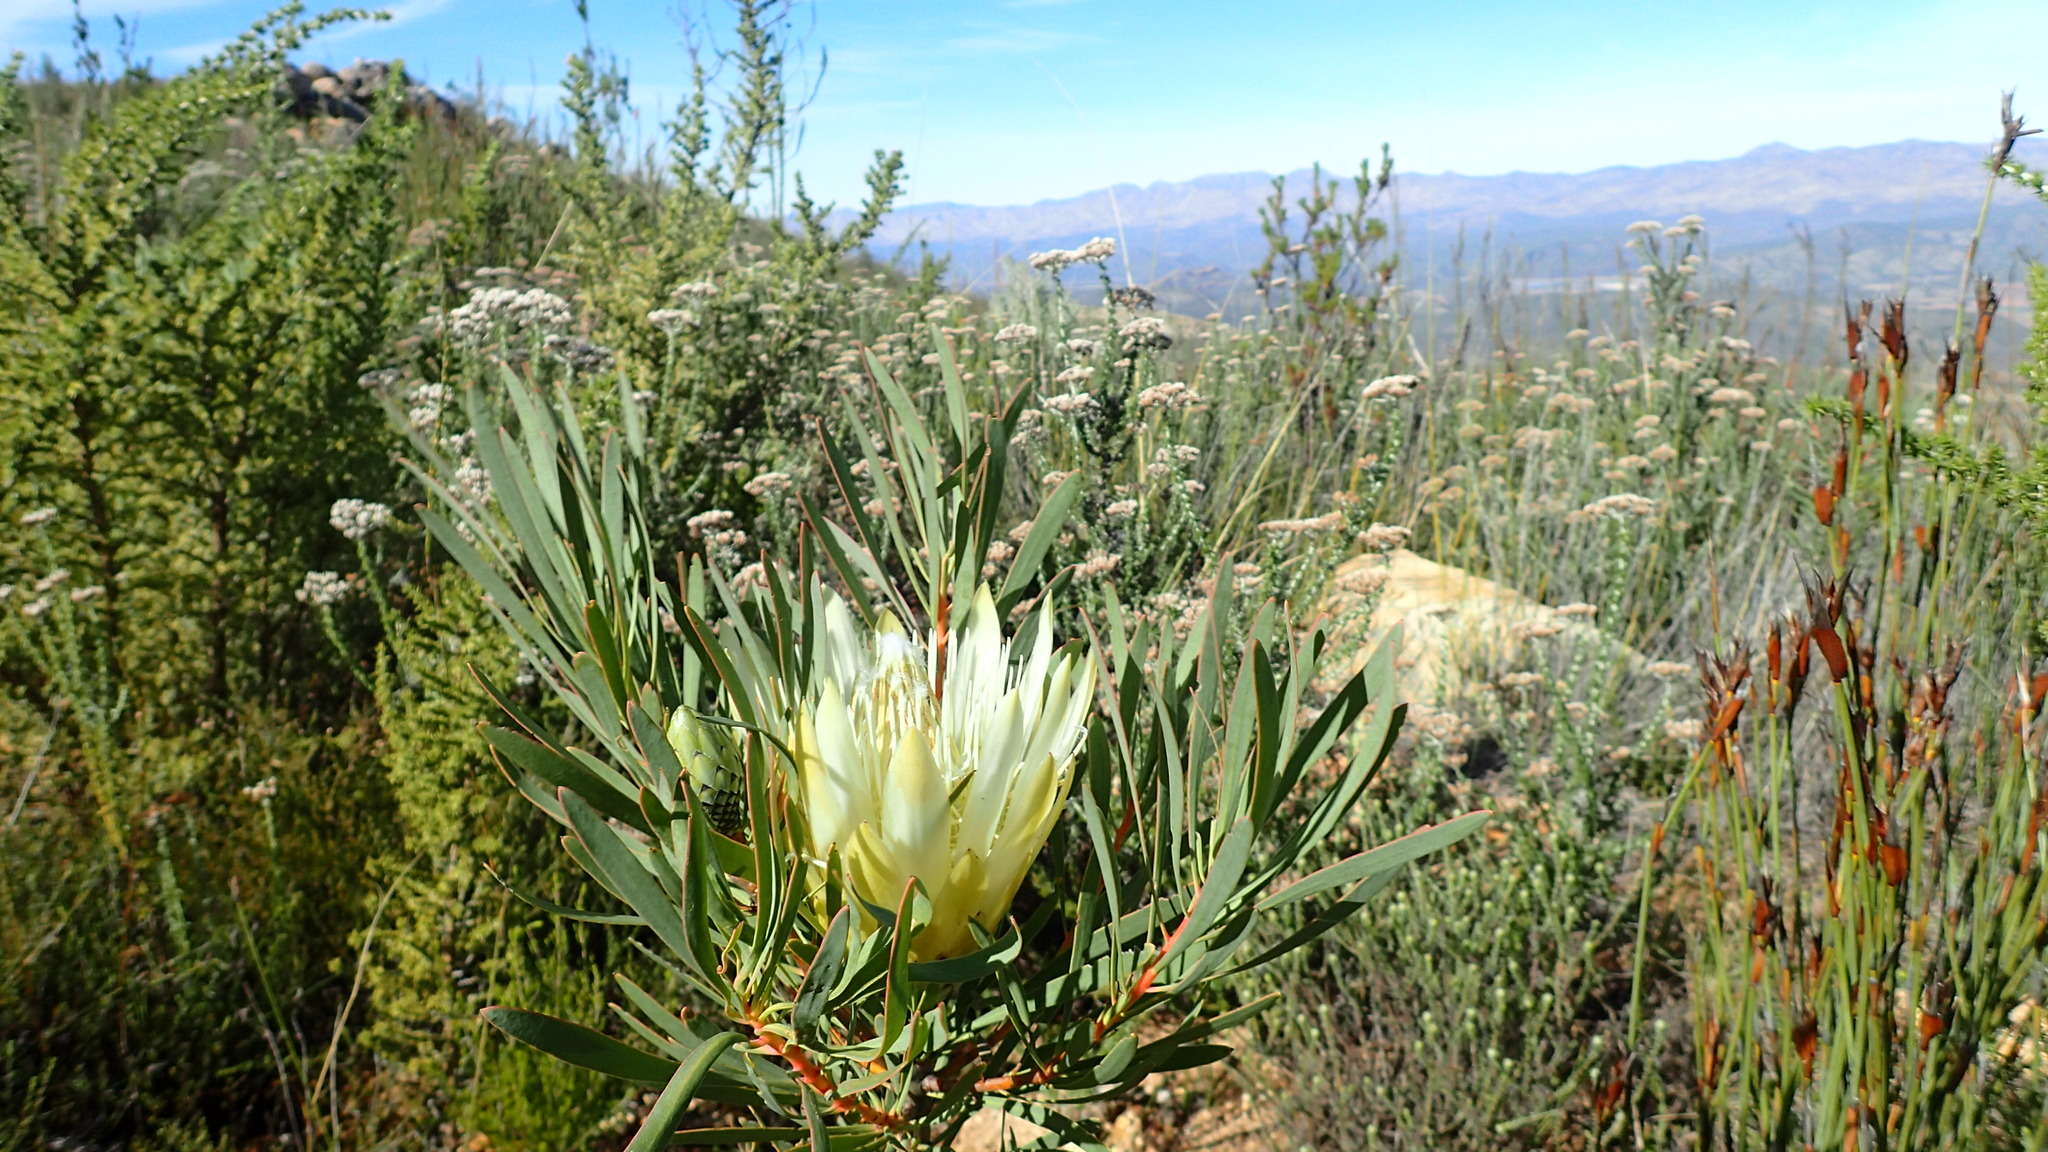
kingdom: Plantae
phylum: Tracheophyta
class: Magnoliopsida
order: Proteales
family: Proteaceae
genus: Protea
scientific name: Protea repens
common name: Sugarbush
